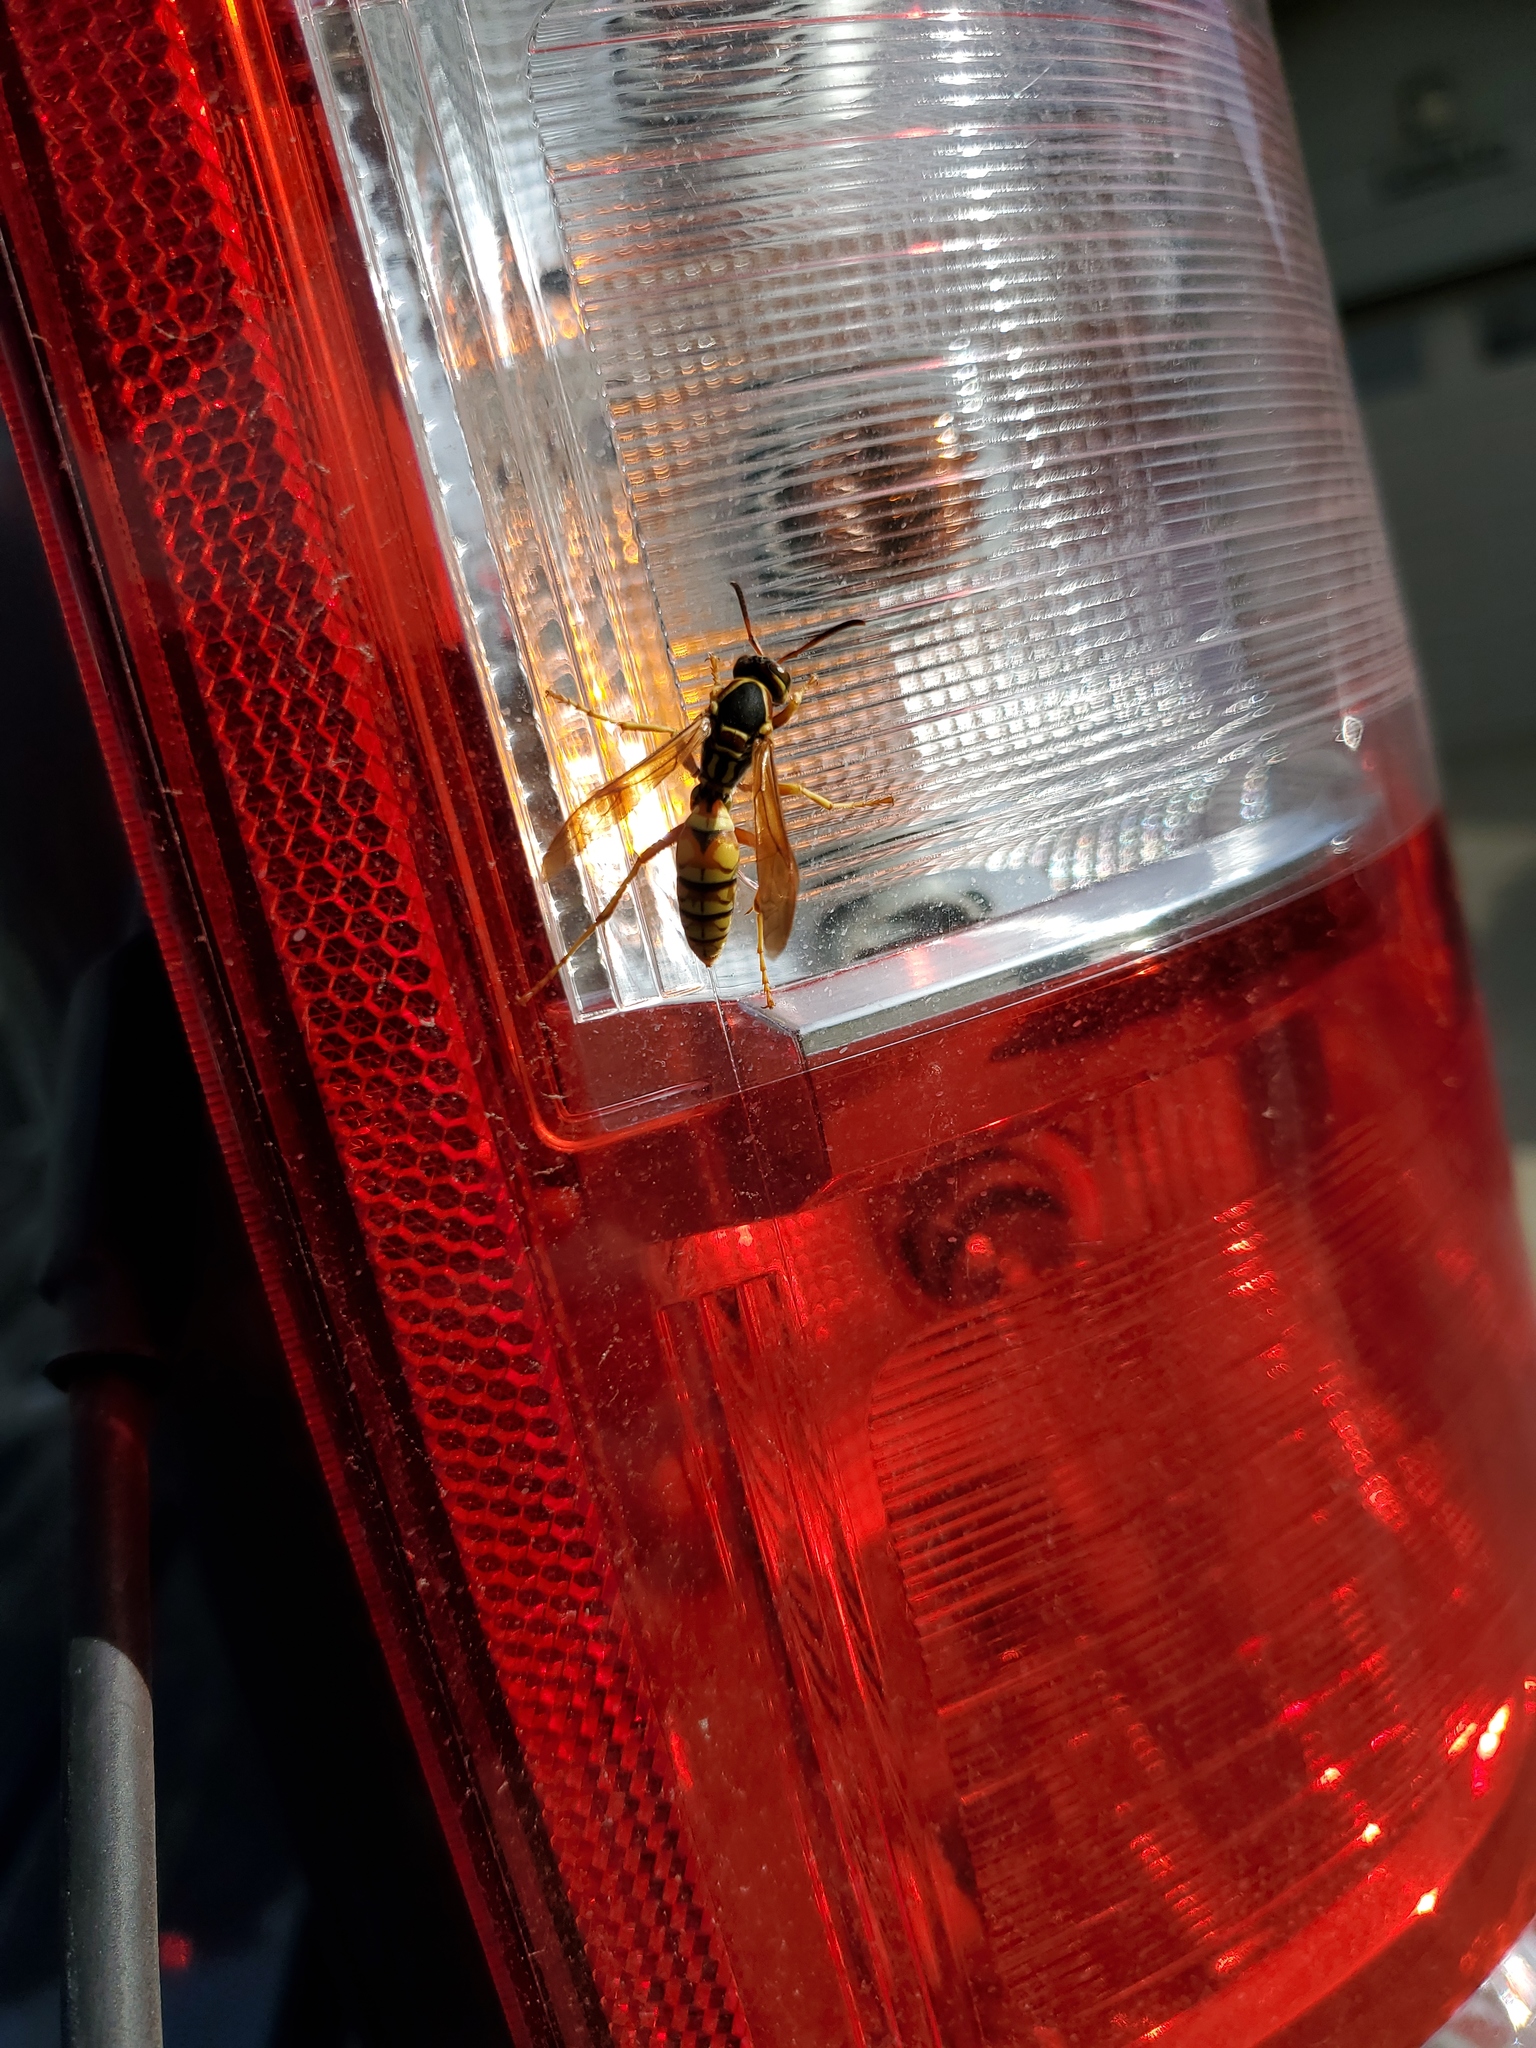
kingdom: Animalia
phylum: Arthropoda
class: Insecta
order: Hymenoptera
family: Eumenidae
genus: Polistes
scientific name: Polistes aurifer
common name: Paper wasp
